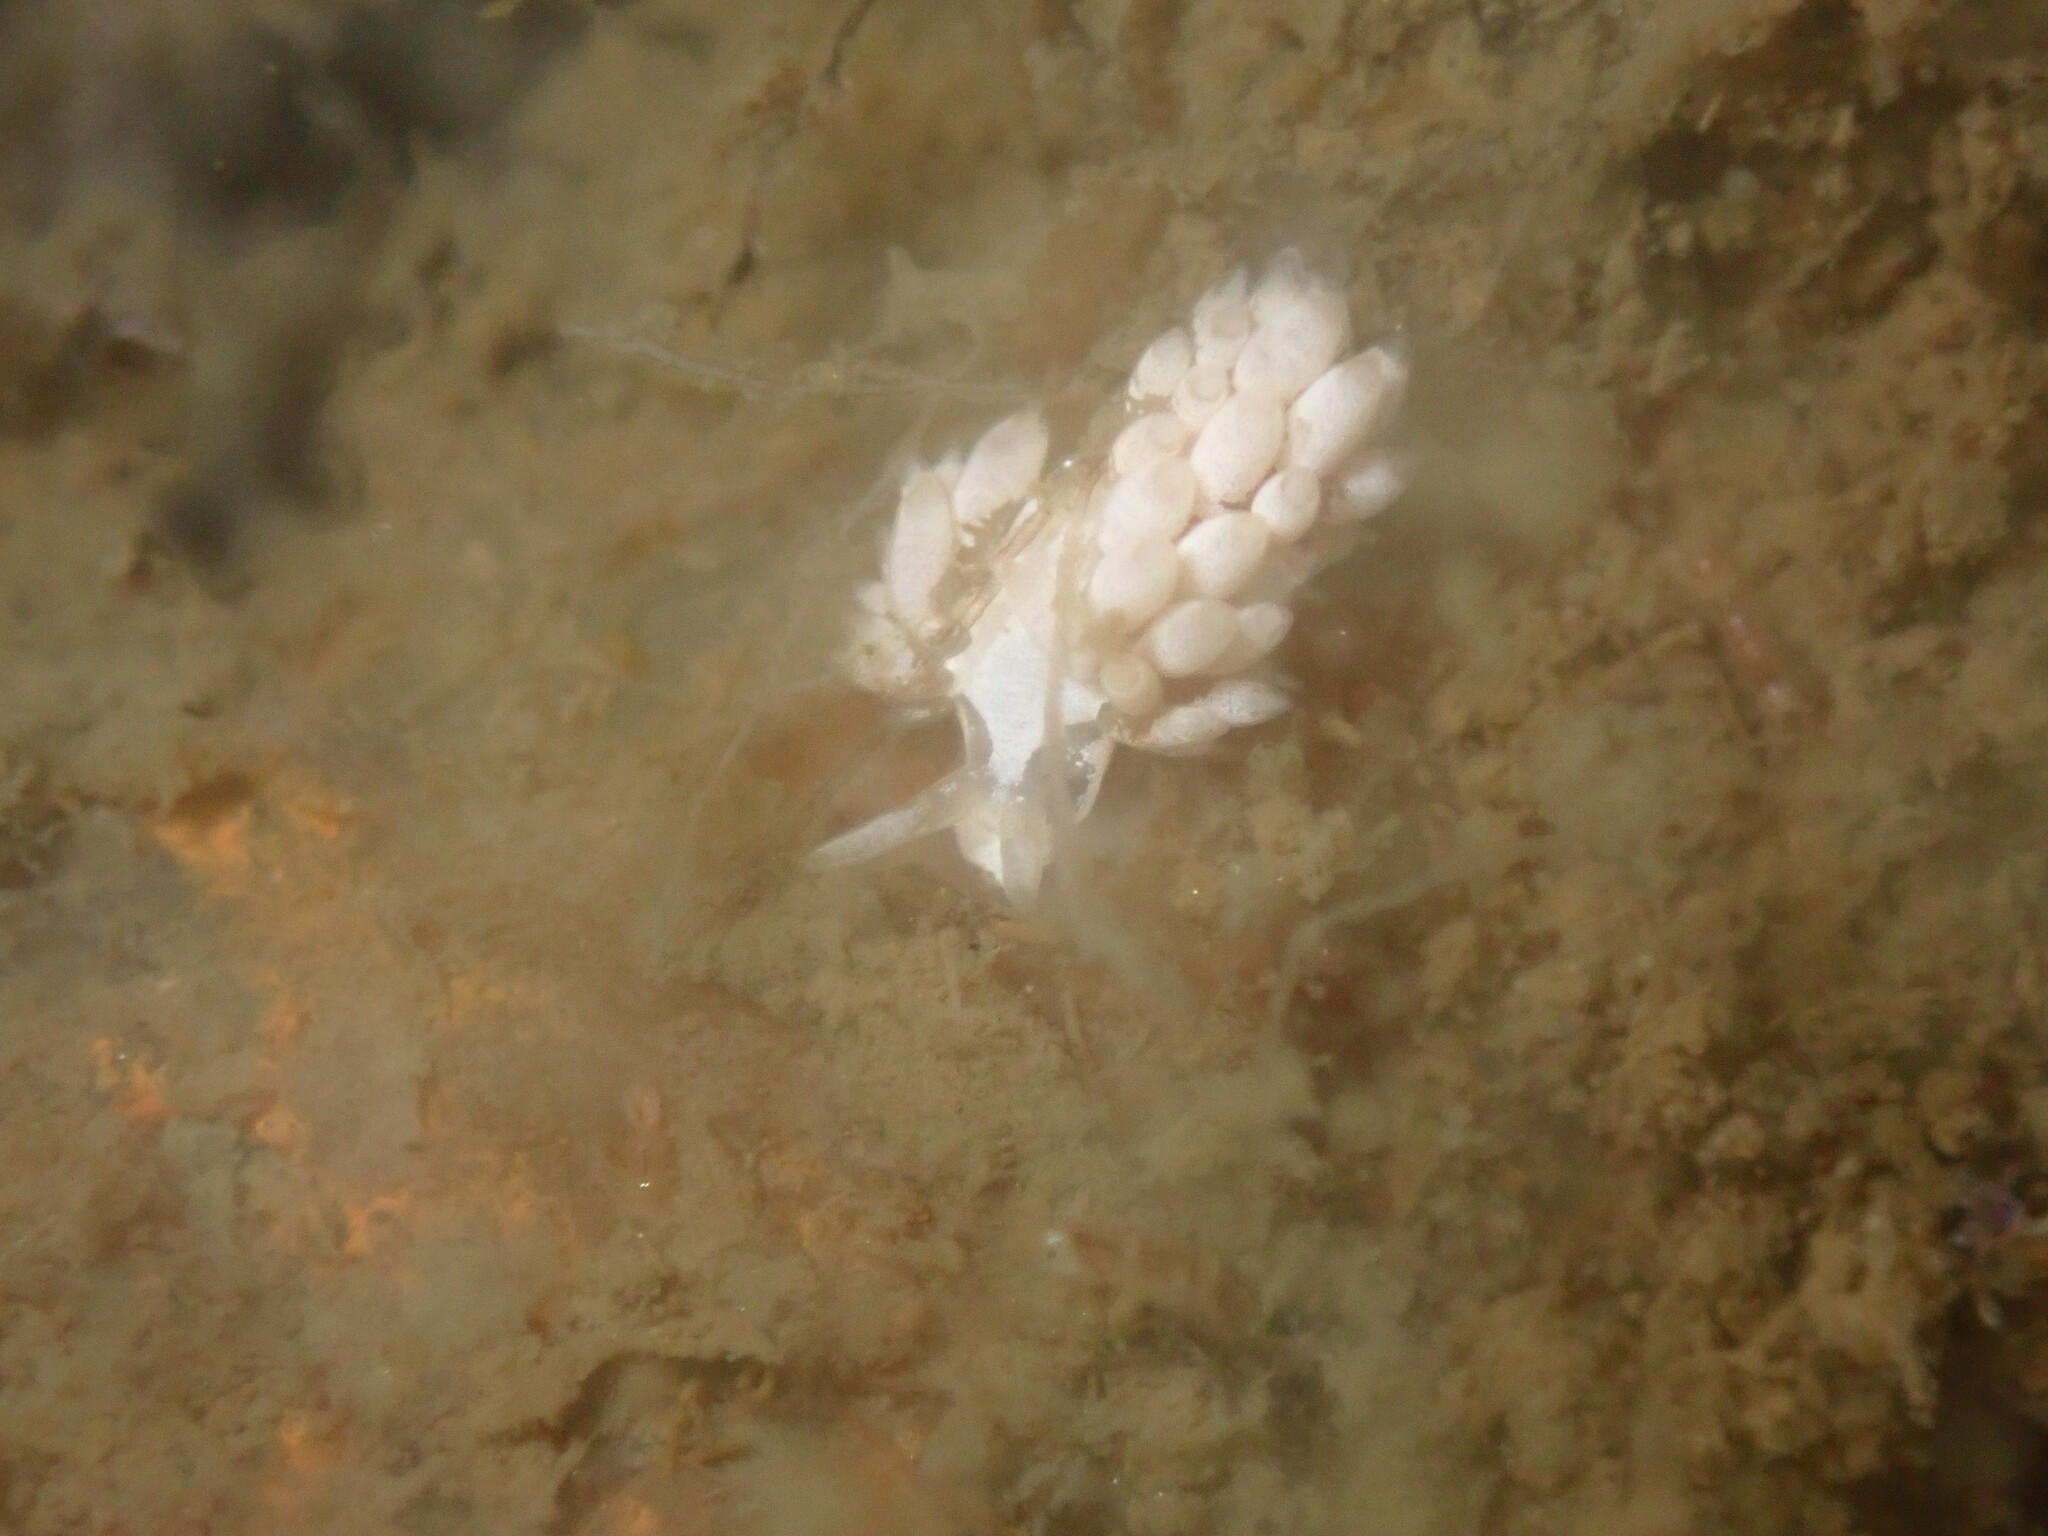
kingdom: Animalia
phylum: Mollusca
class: Gastropoda
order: Nudibranchia
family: Trinchesiidae
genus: Trinchesia
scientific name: Trinchesia albocrusta
